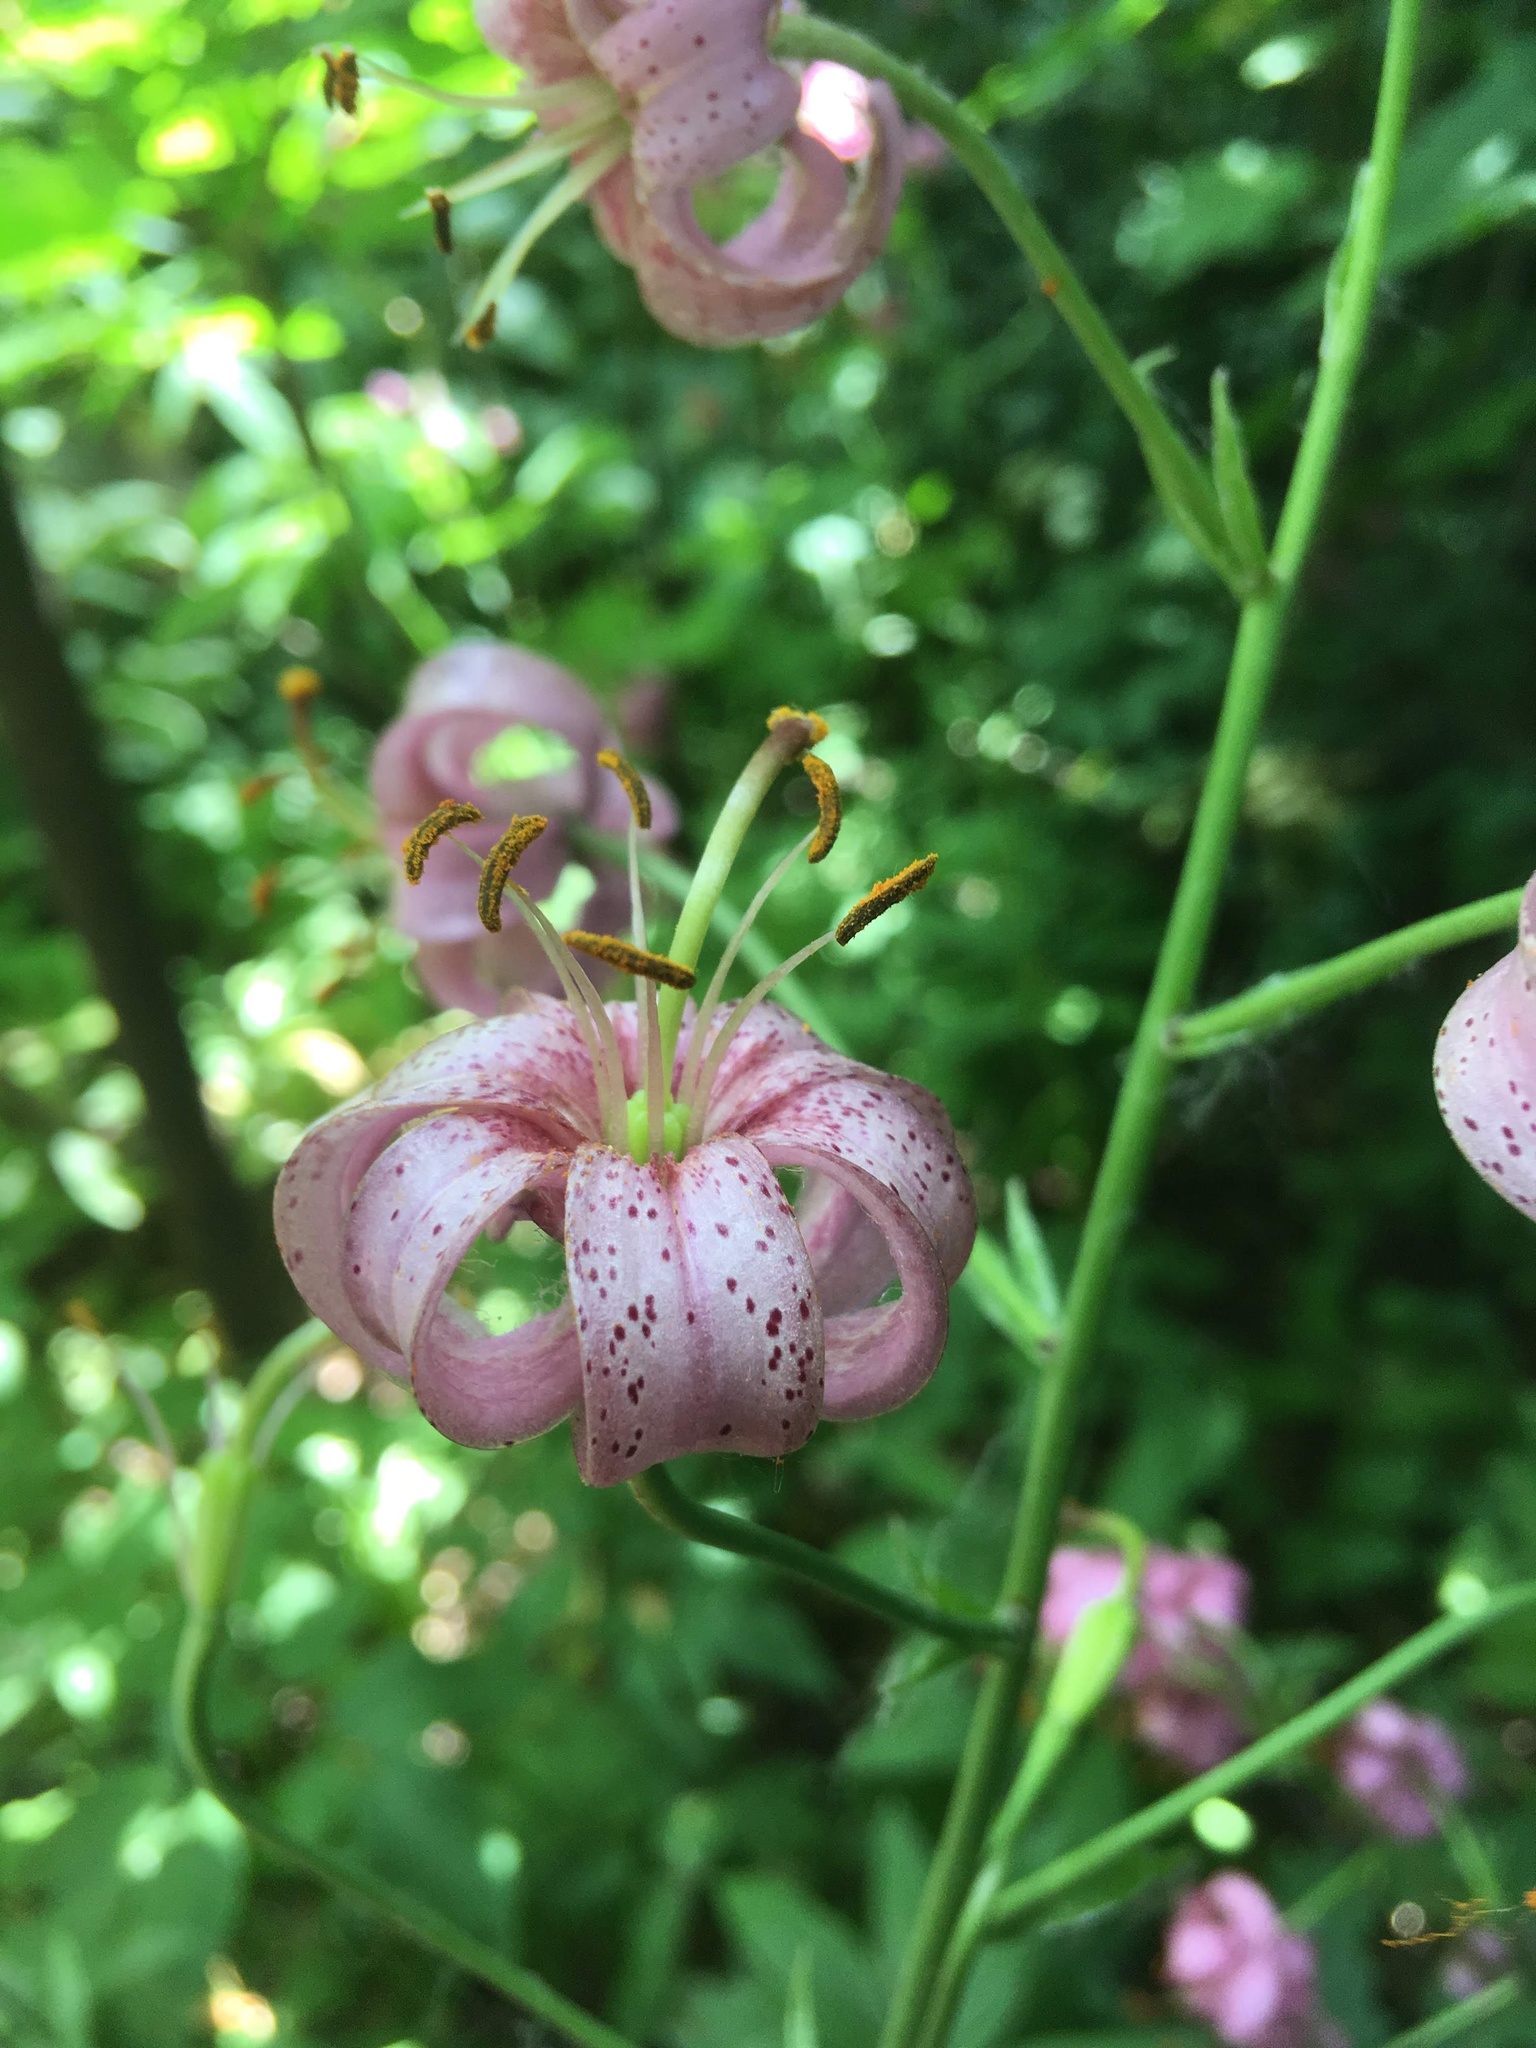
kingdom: Plantae
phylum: Tracheophyta
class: Liliopsida
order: Liliales
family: Liliaceae
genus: Lilium
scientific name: Lilium martagon
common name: Martagon lily
